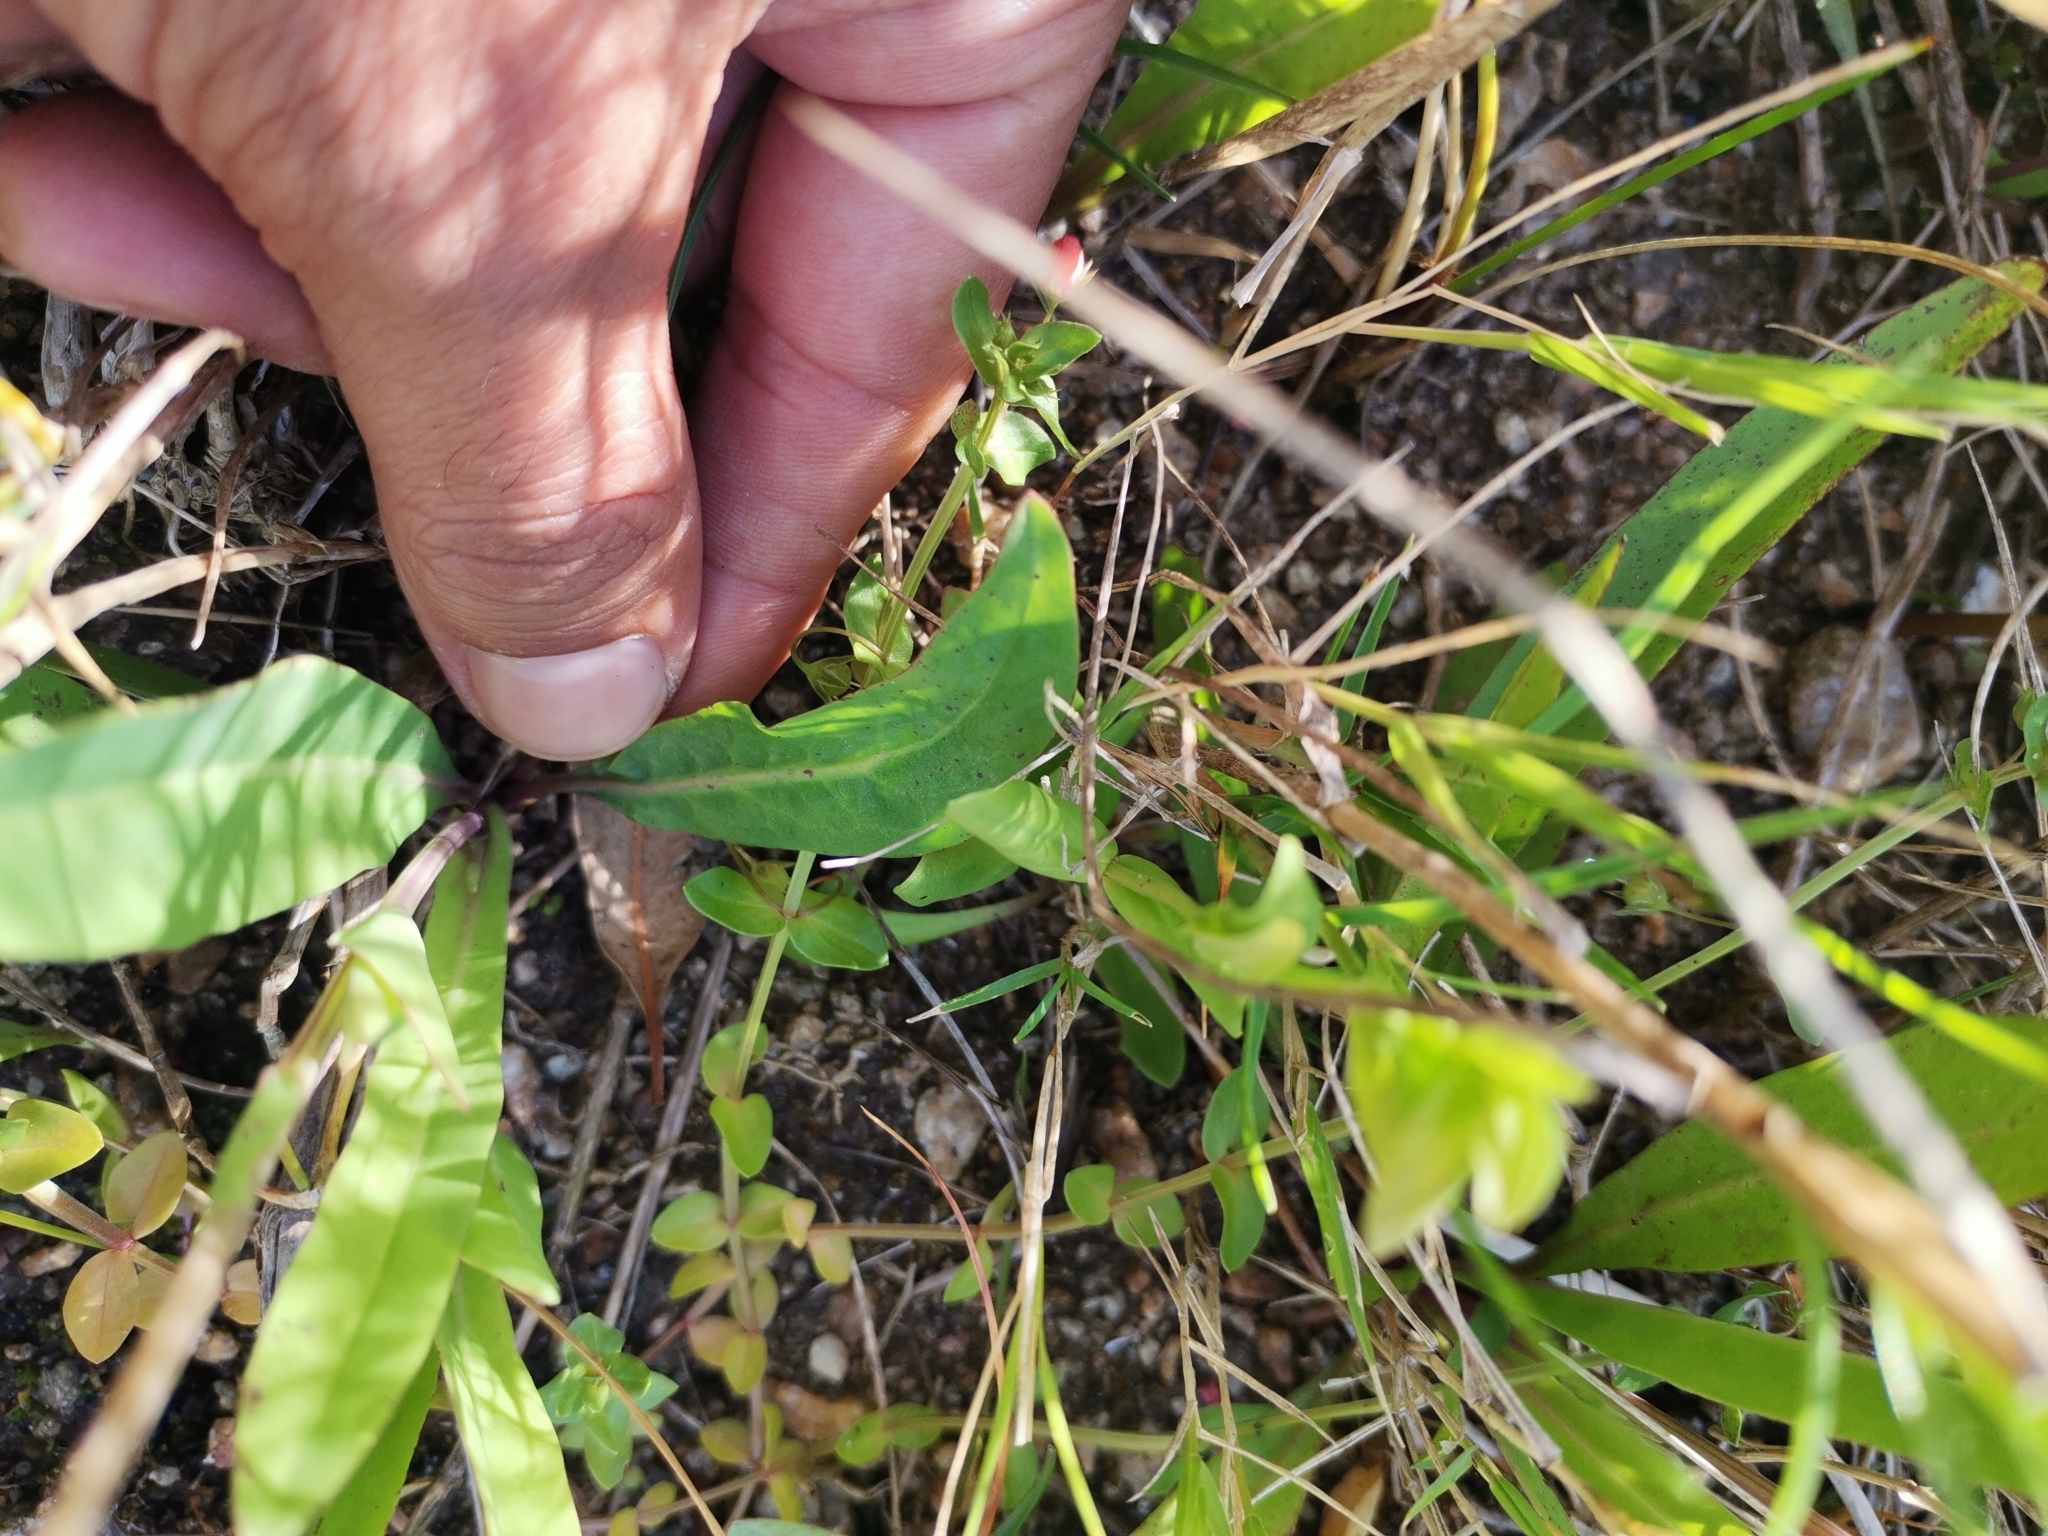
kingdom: Plantae
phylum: Tracheophyta
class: Magnoliopsida
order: Asterales
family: Asteraceae
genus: Picrosia
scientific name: Picrosia longifolia
